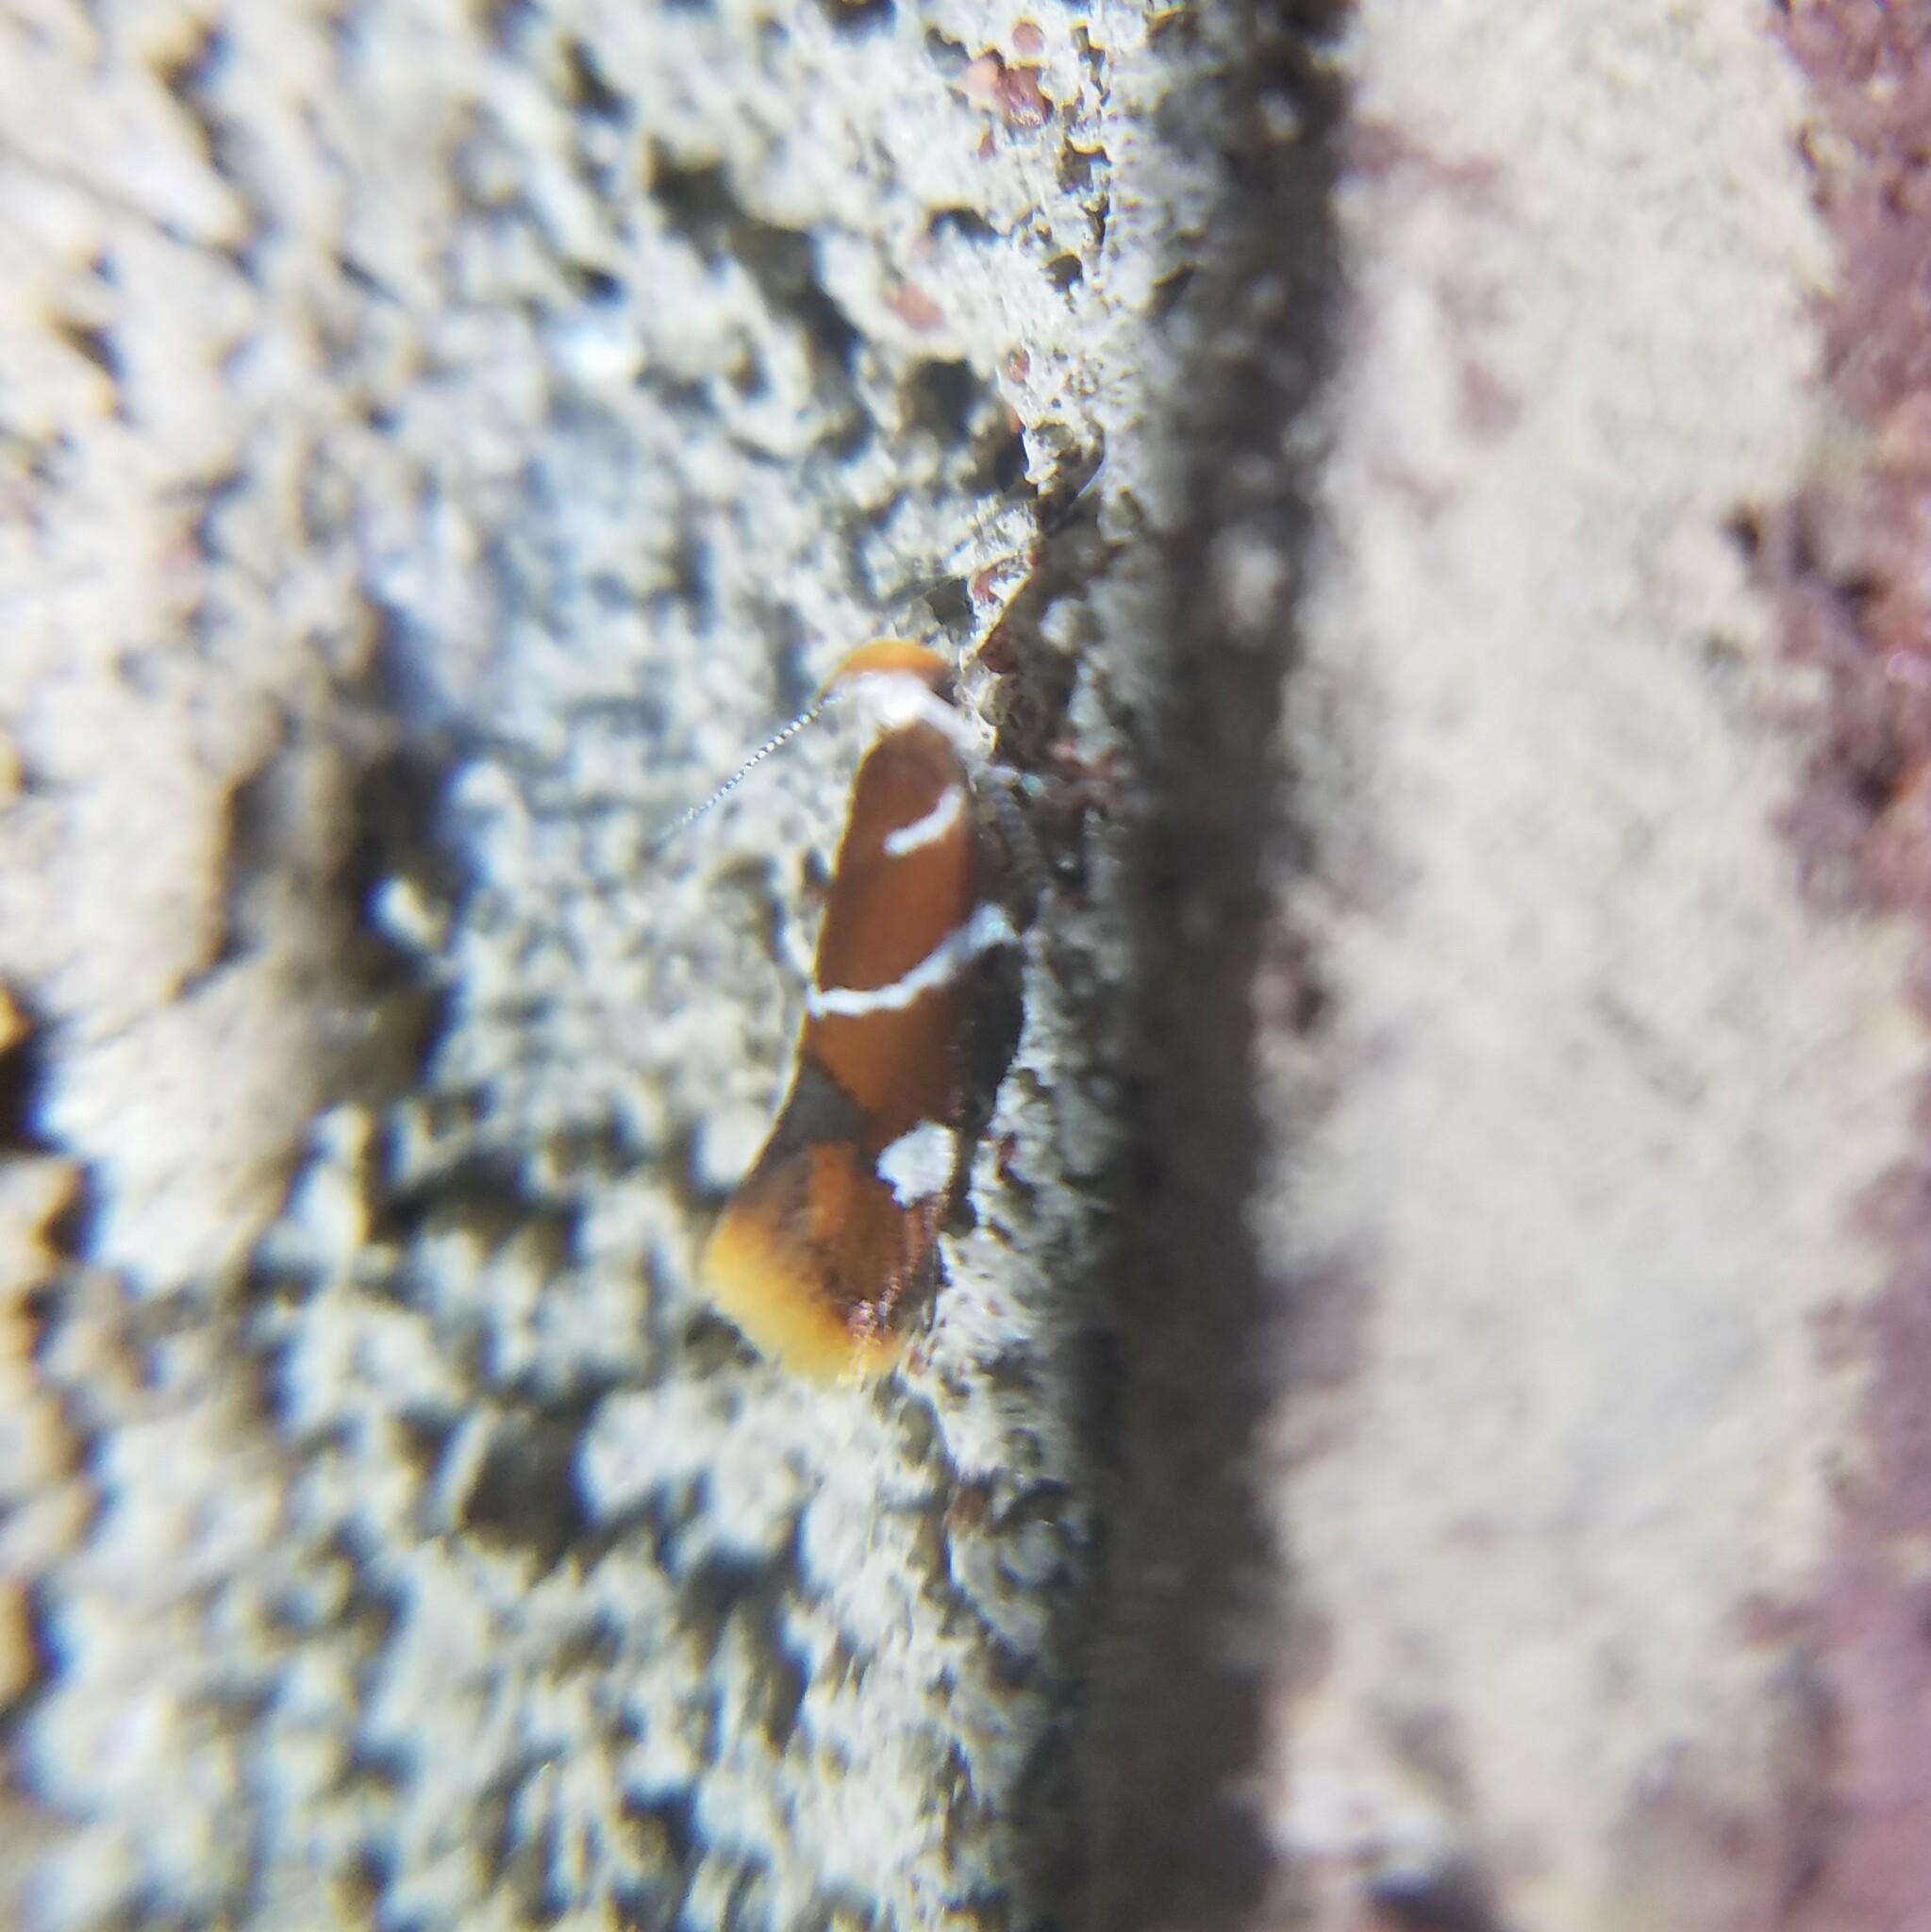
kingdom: Animalia
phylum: Arthropoda
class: Insecta
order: Lepidoptera
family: Oecophoridae
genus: Promalactis
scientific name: Promalactis suzukiella
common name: Moth
